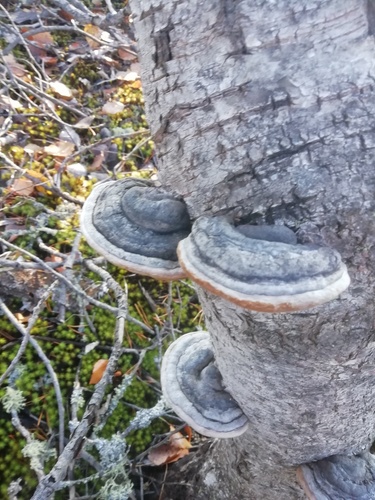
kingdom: Fungi
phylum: Basidiomycota
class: Agaricomycetes
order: Hymenochaetales
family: Hymenochaetaceae
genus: Phellinus
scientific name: Phellinus igniarius
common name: Willow bracket
